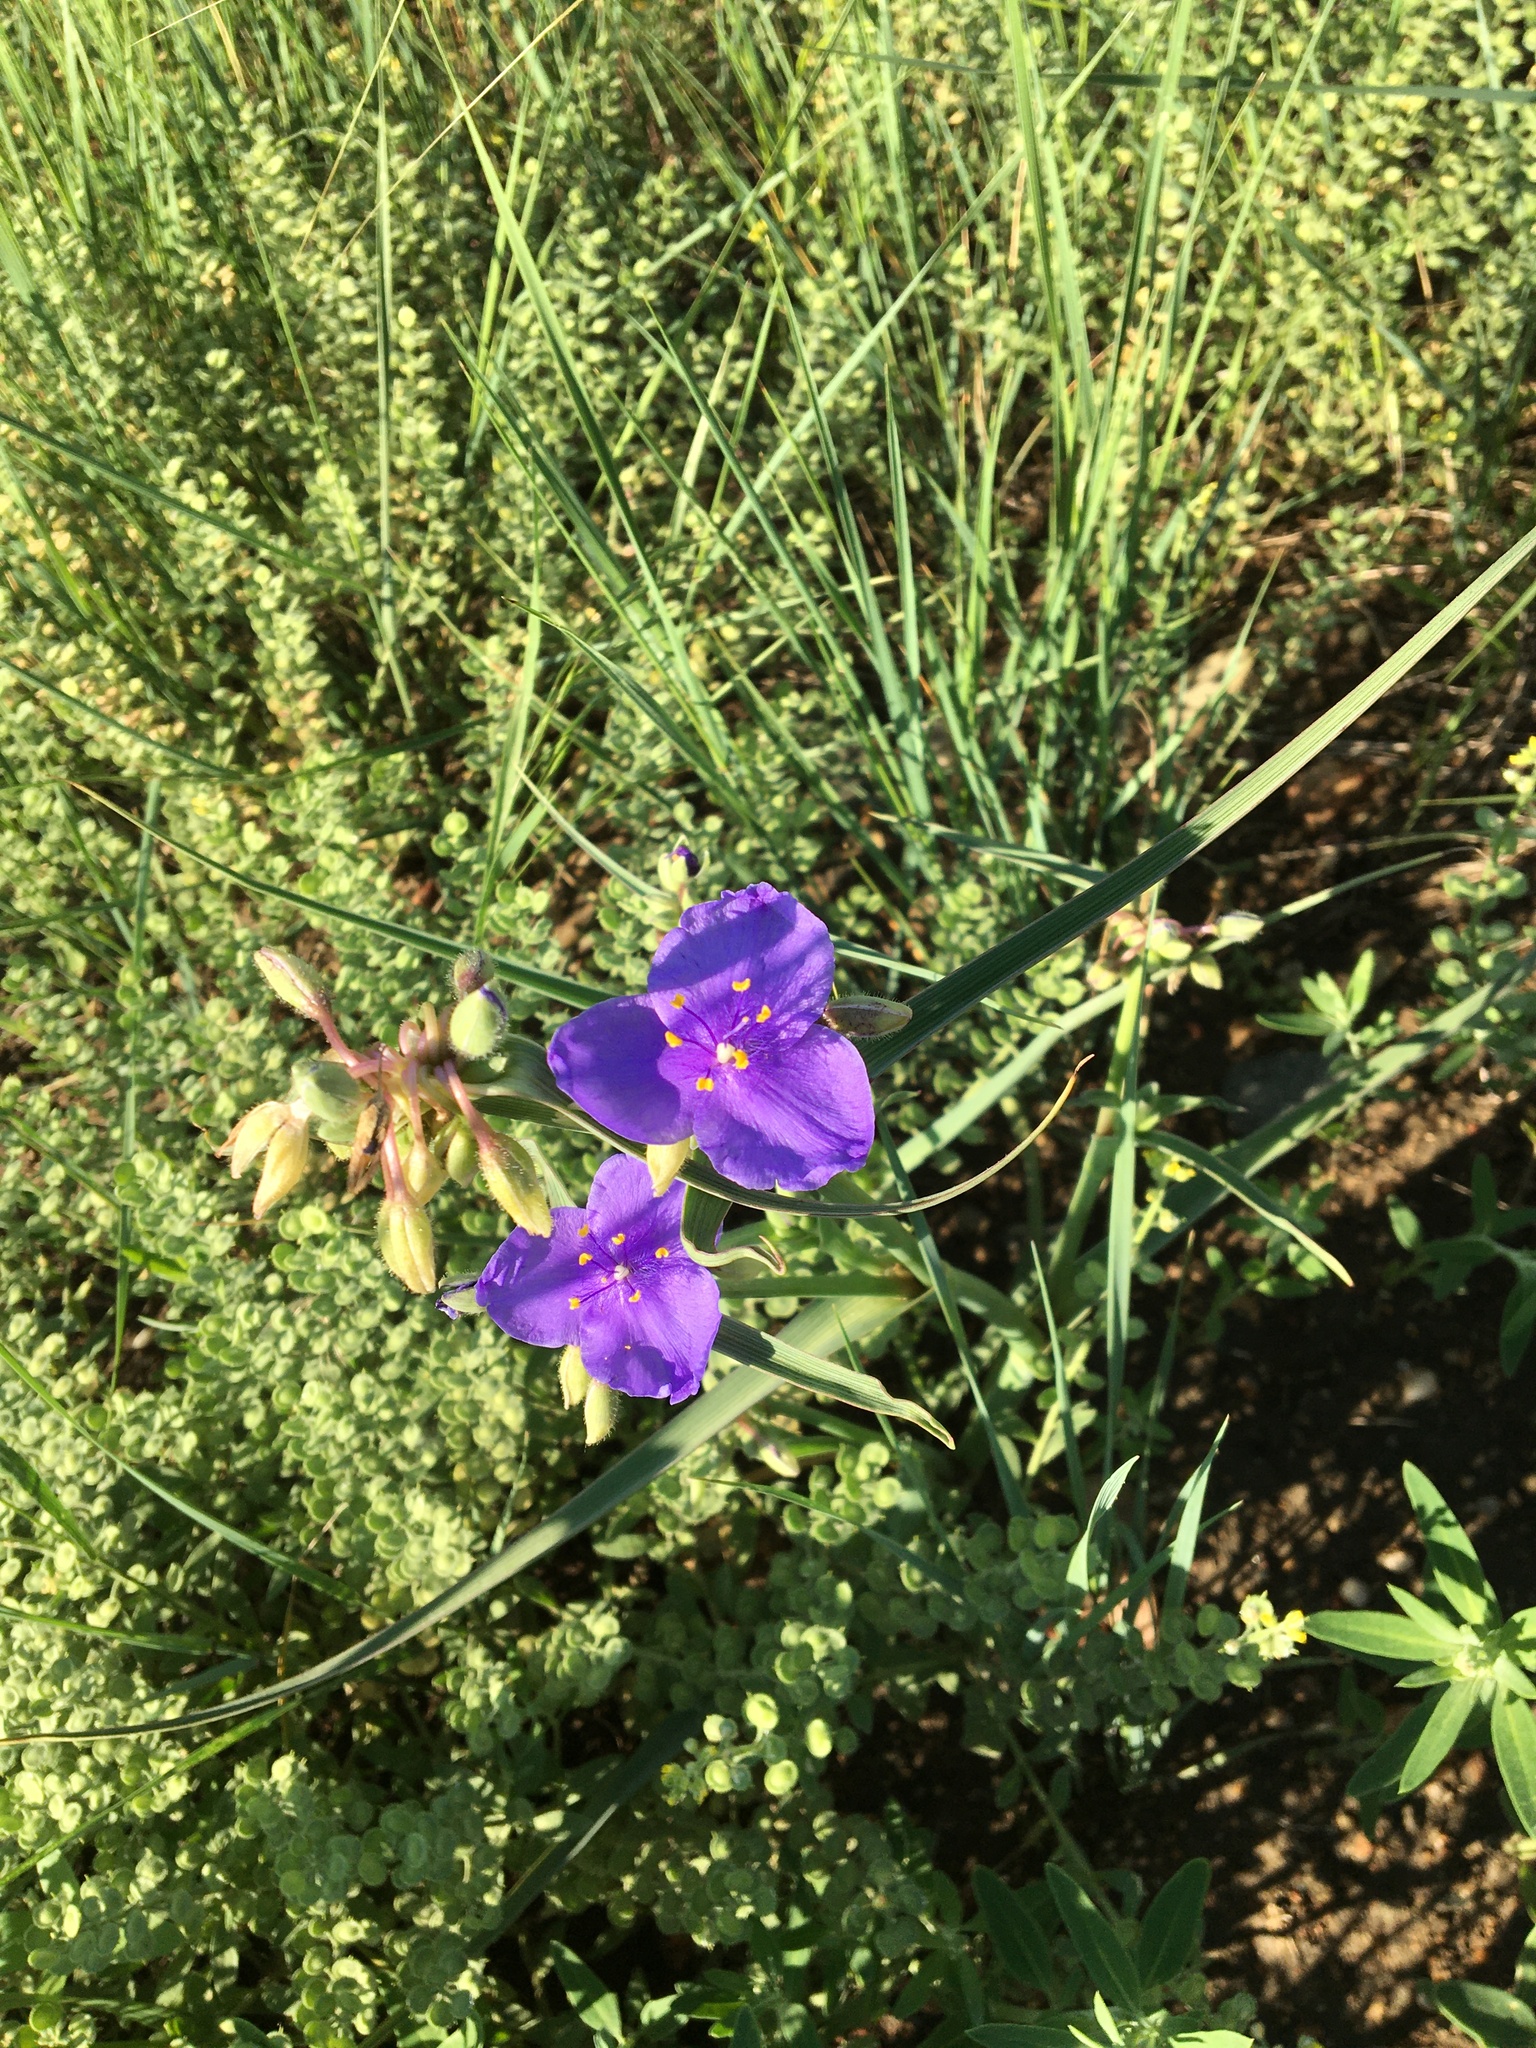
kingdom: Plantae
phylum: Tracheophyta
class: Liliopsida
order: Commelinales
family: Commelinaceae
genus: Tradescantia
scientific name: Tradescantia occidentalis
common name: Prairie spiderwort
